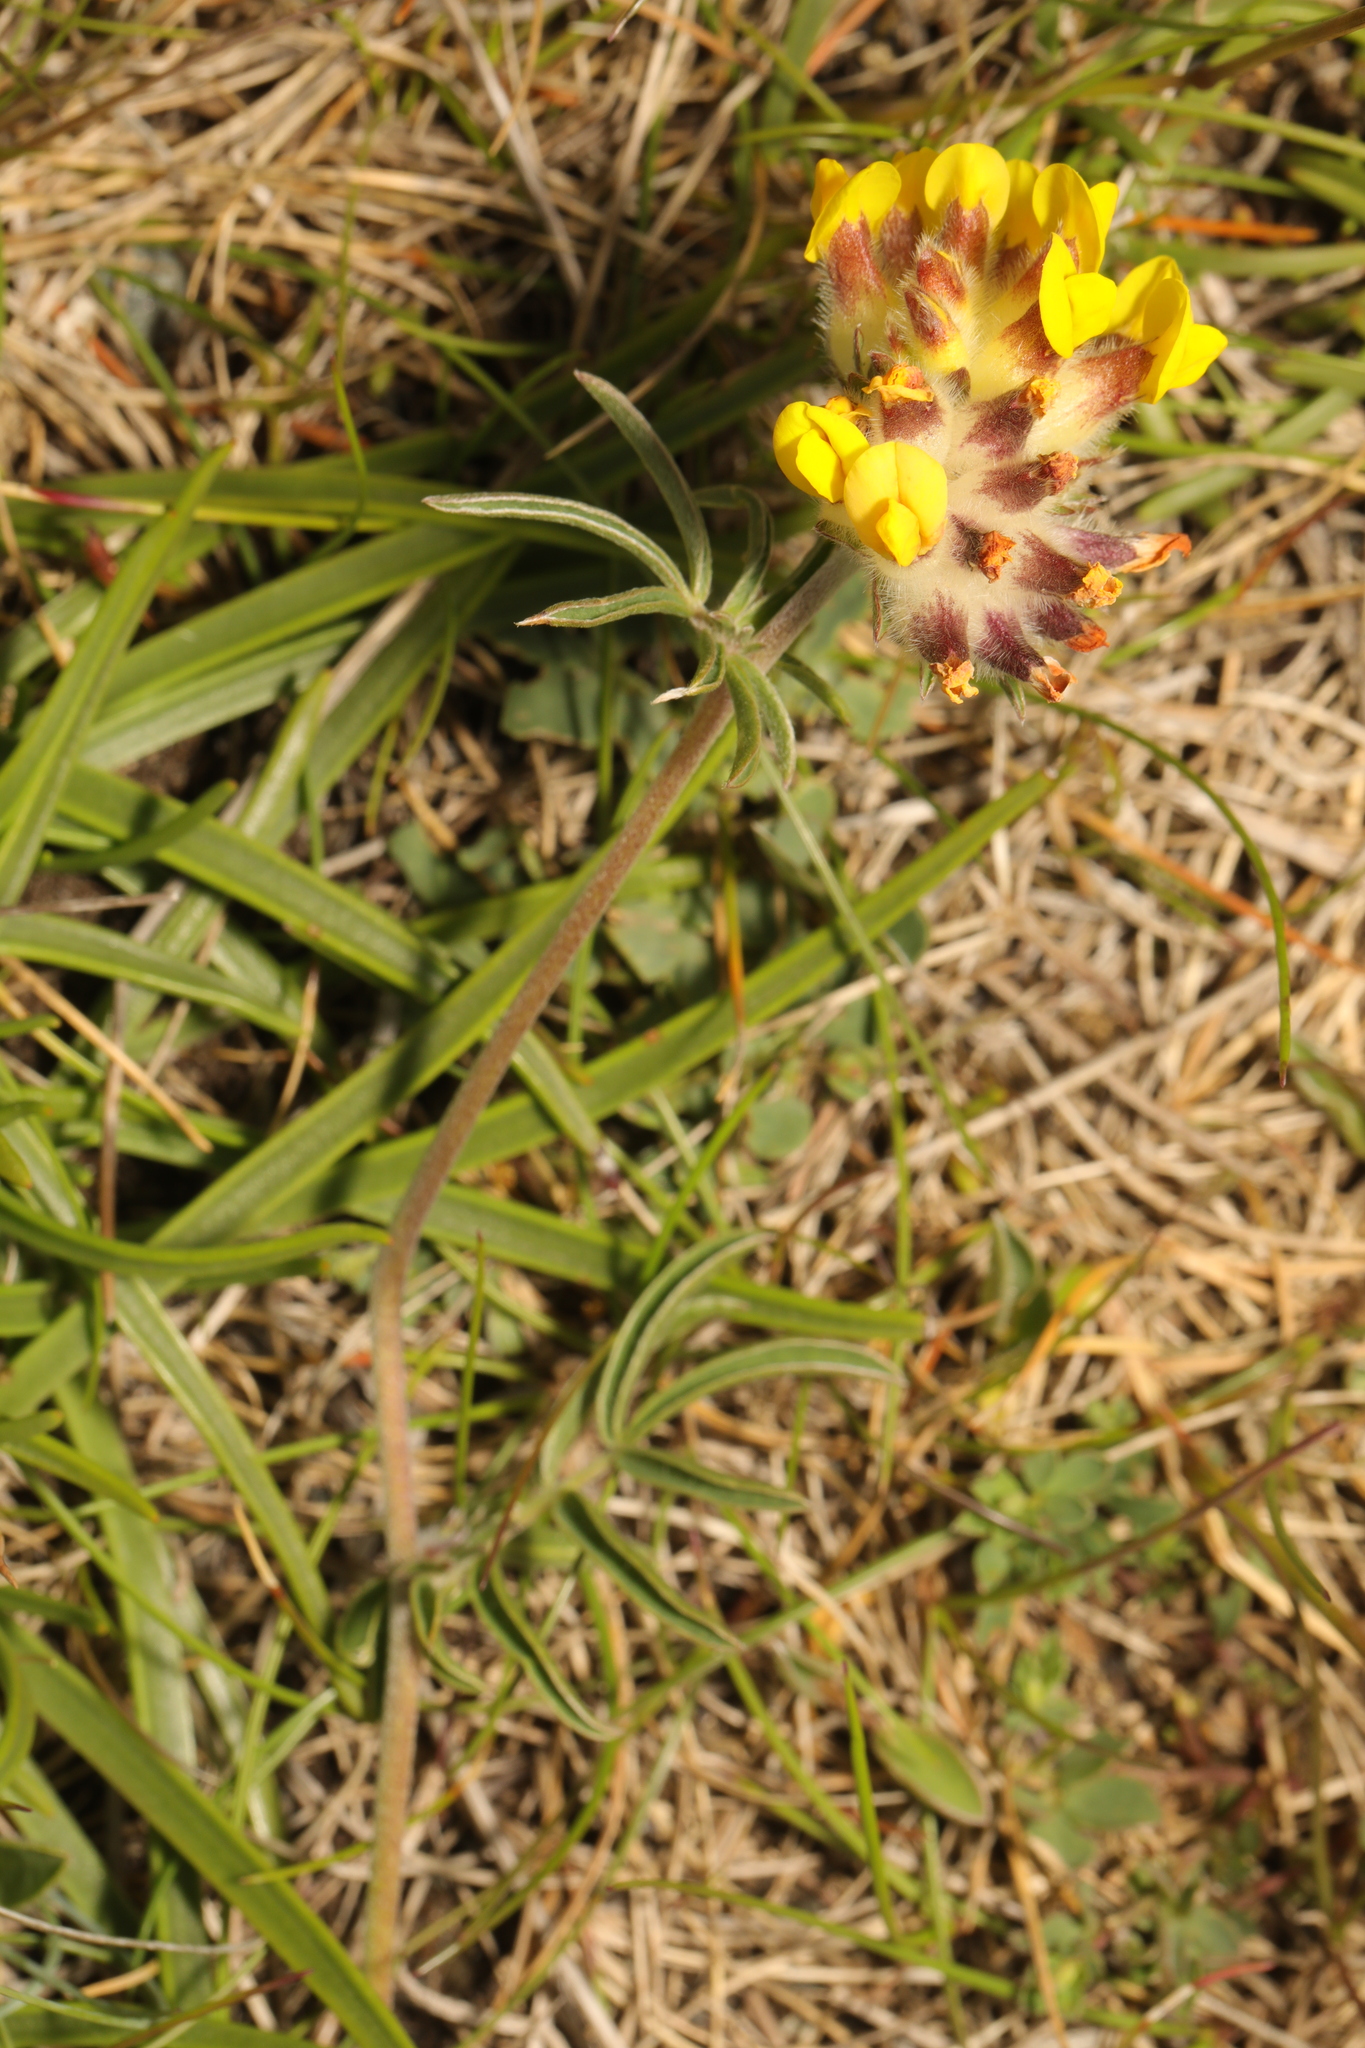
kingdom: Plantae
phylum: Tracheophyta
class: Magnoliopsida
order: Fabales
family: Fabaceae
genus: Anthyllis
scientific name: Anthyllis vulneraria
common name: Kidney vetch
